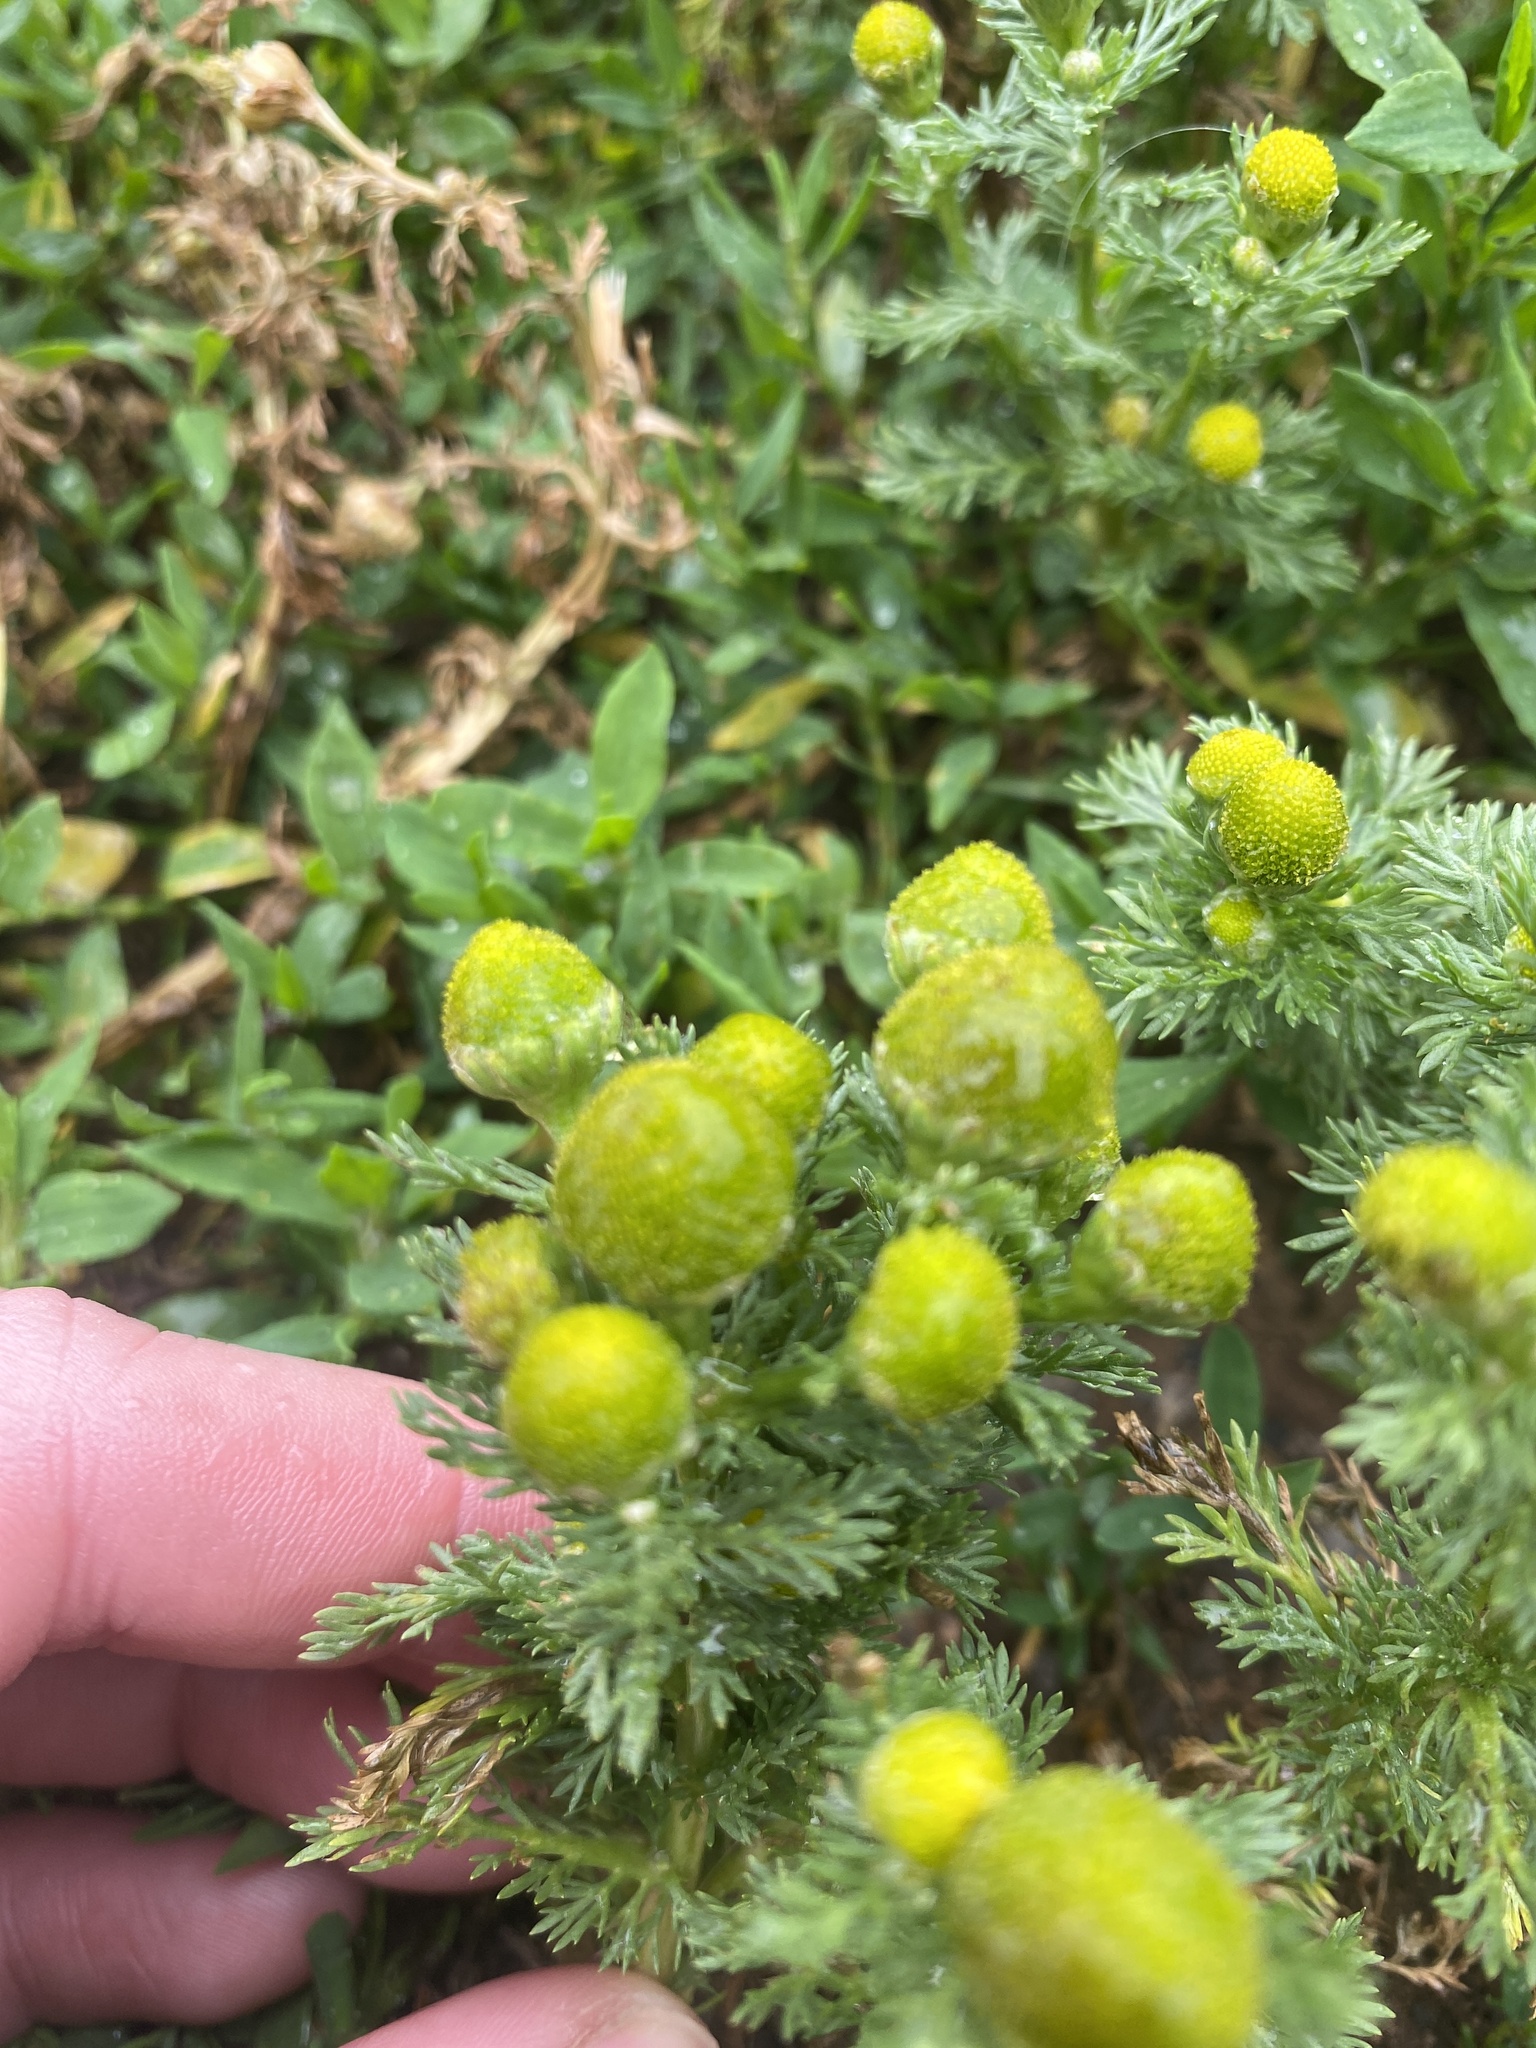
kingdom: Plantae
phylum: Tracheophyta
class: Magnoliopsida
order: Asterales
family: Asteraceae
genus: Matricaria
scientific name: Matricaria discoidea
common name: Disc mayweed
